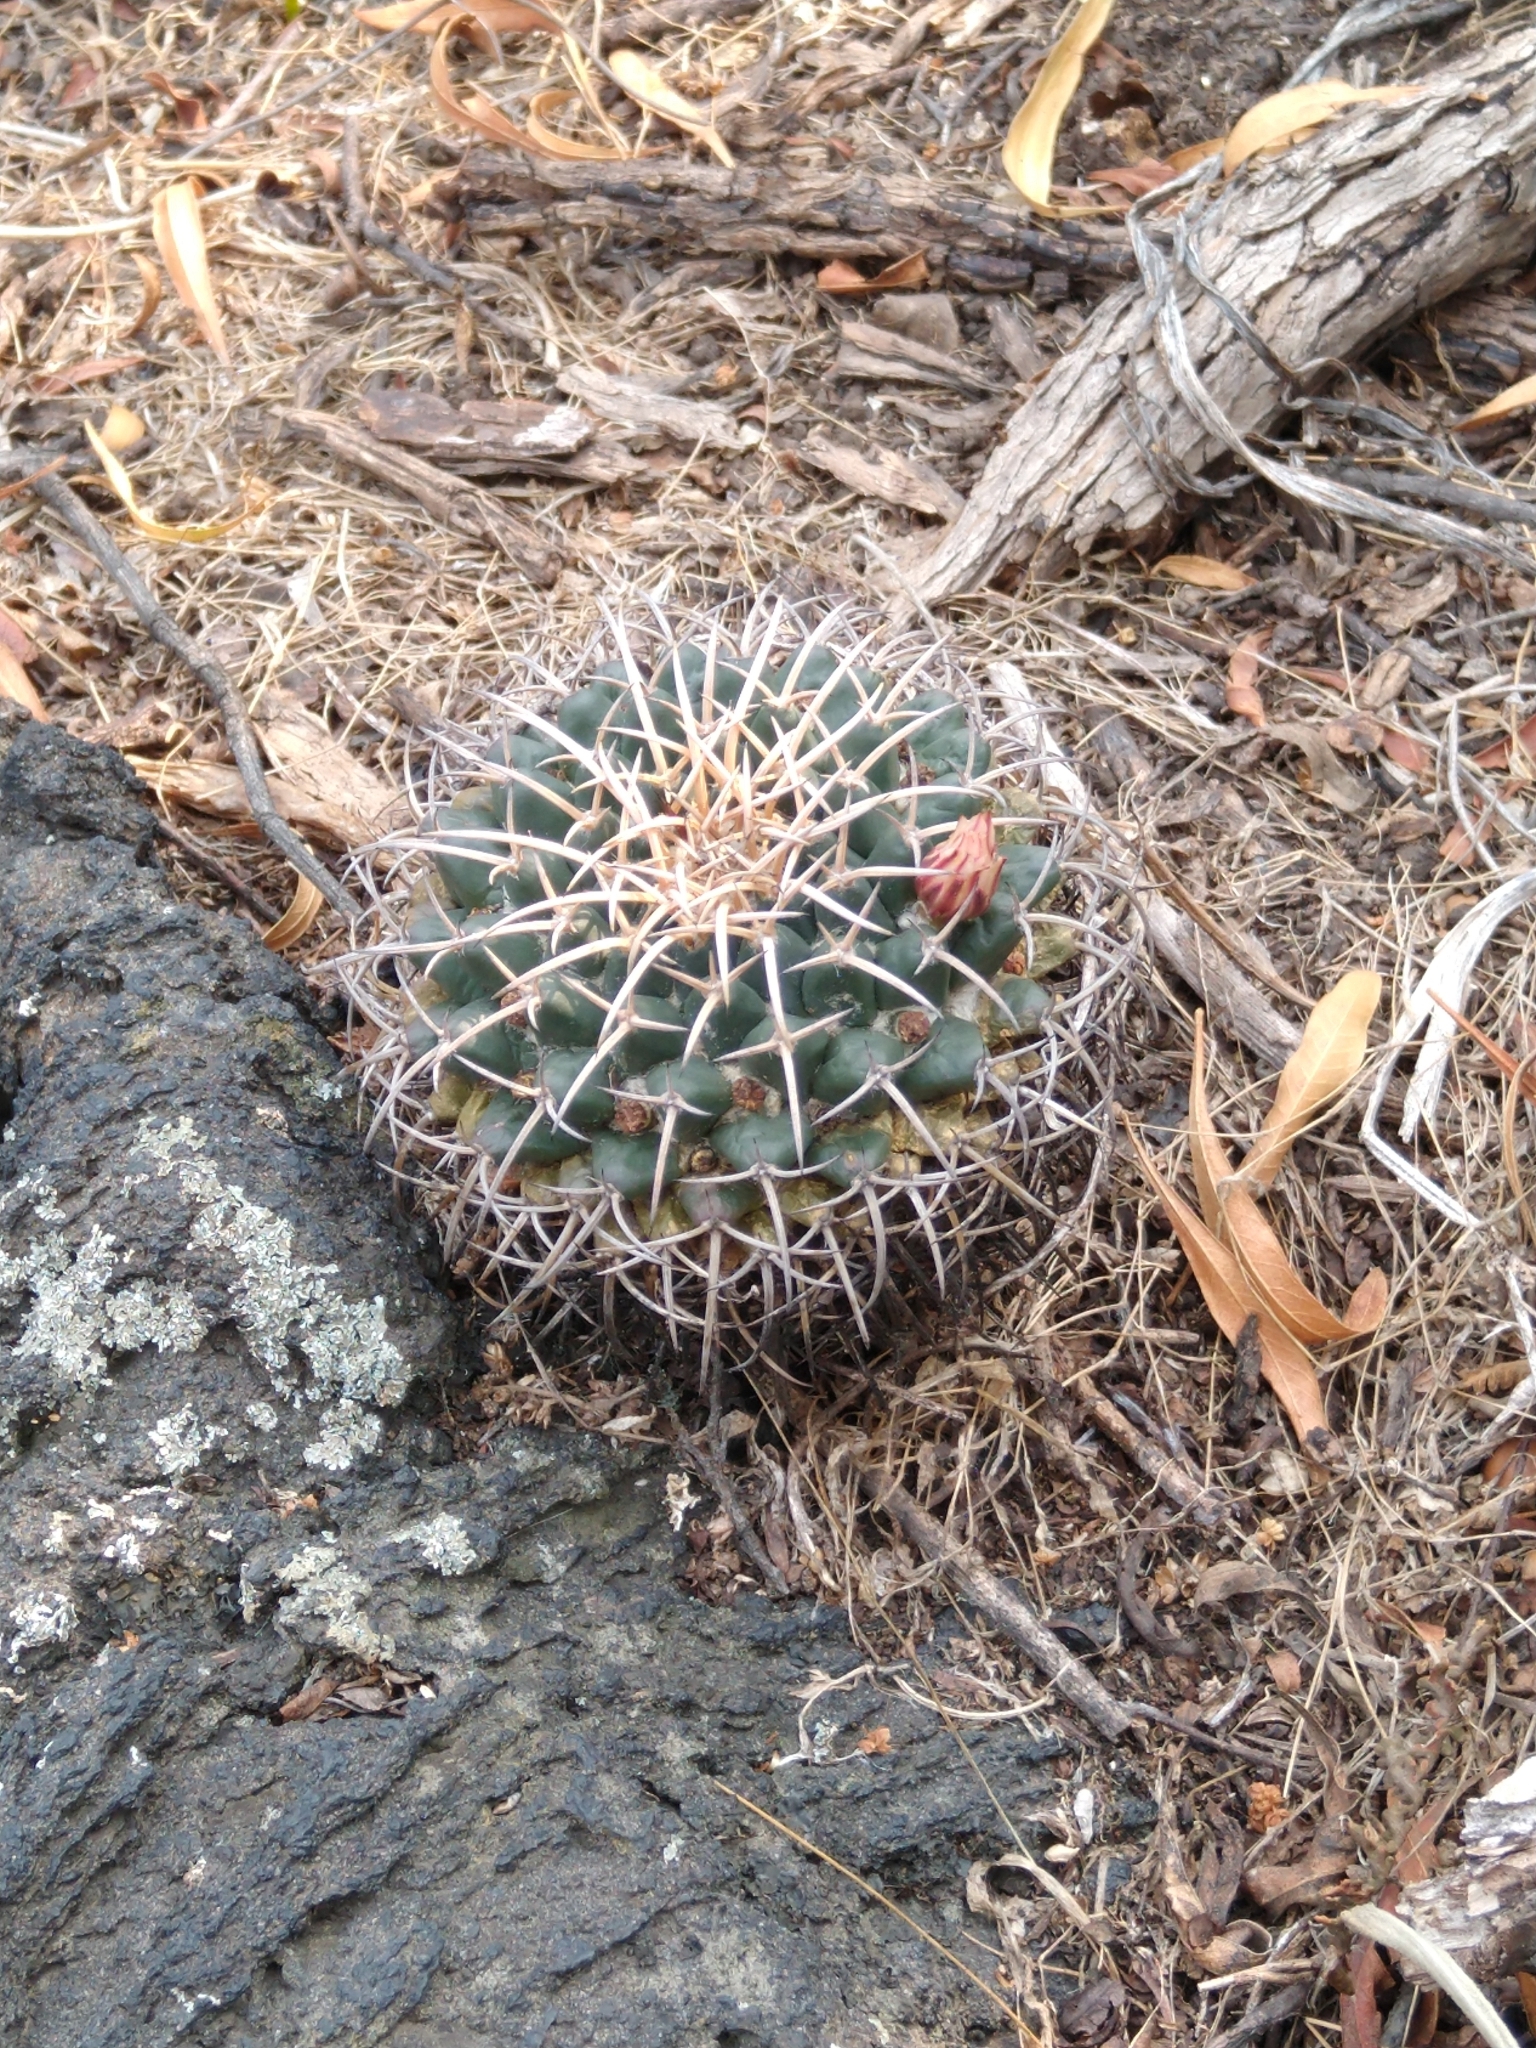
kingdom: Plantae
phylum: Tracheophyta
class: Magnoliopsida
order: Caryophyllales
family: Cactaceae
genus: Mammillaria
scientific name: Mammillaria magnimamma
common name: Mexican pincushion
